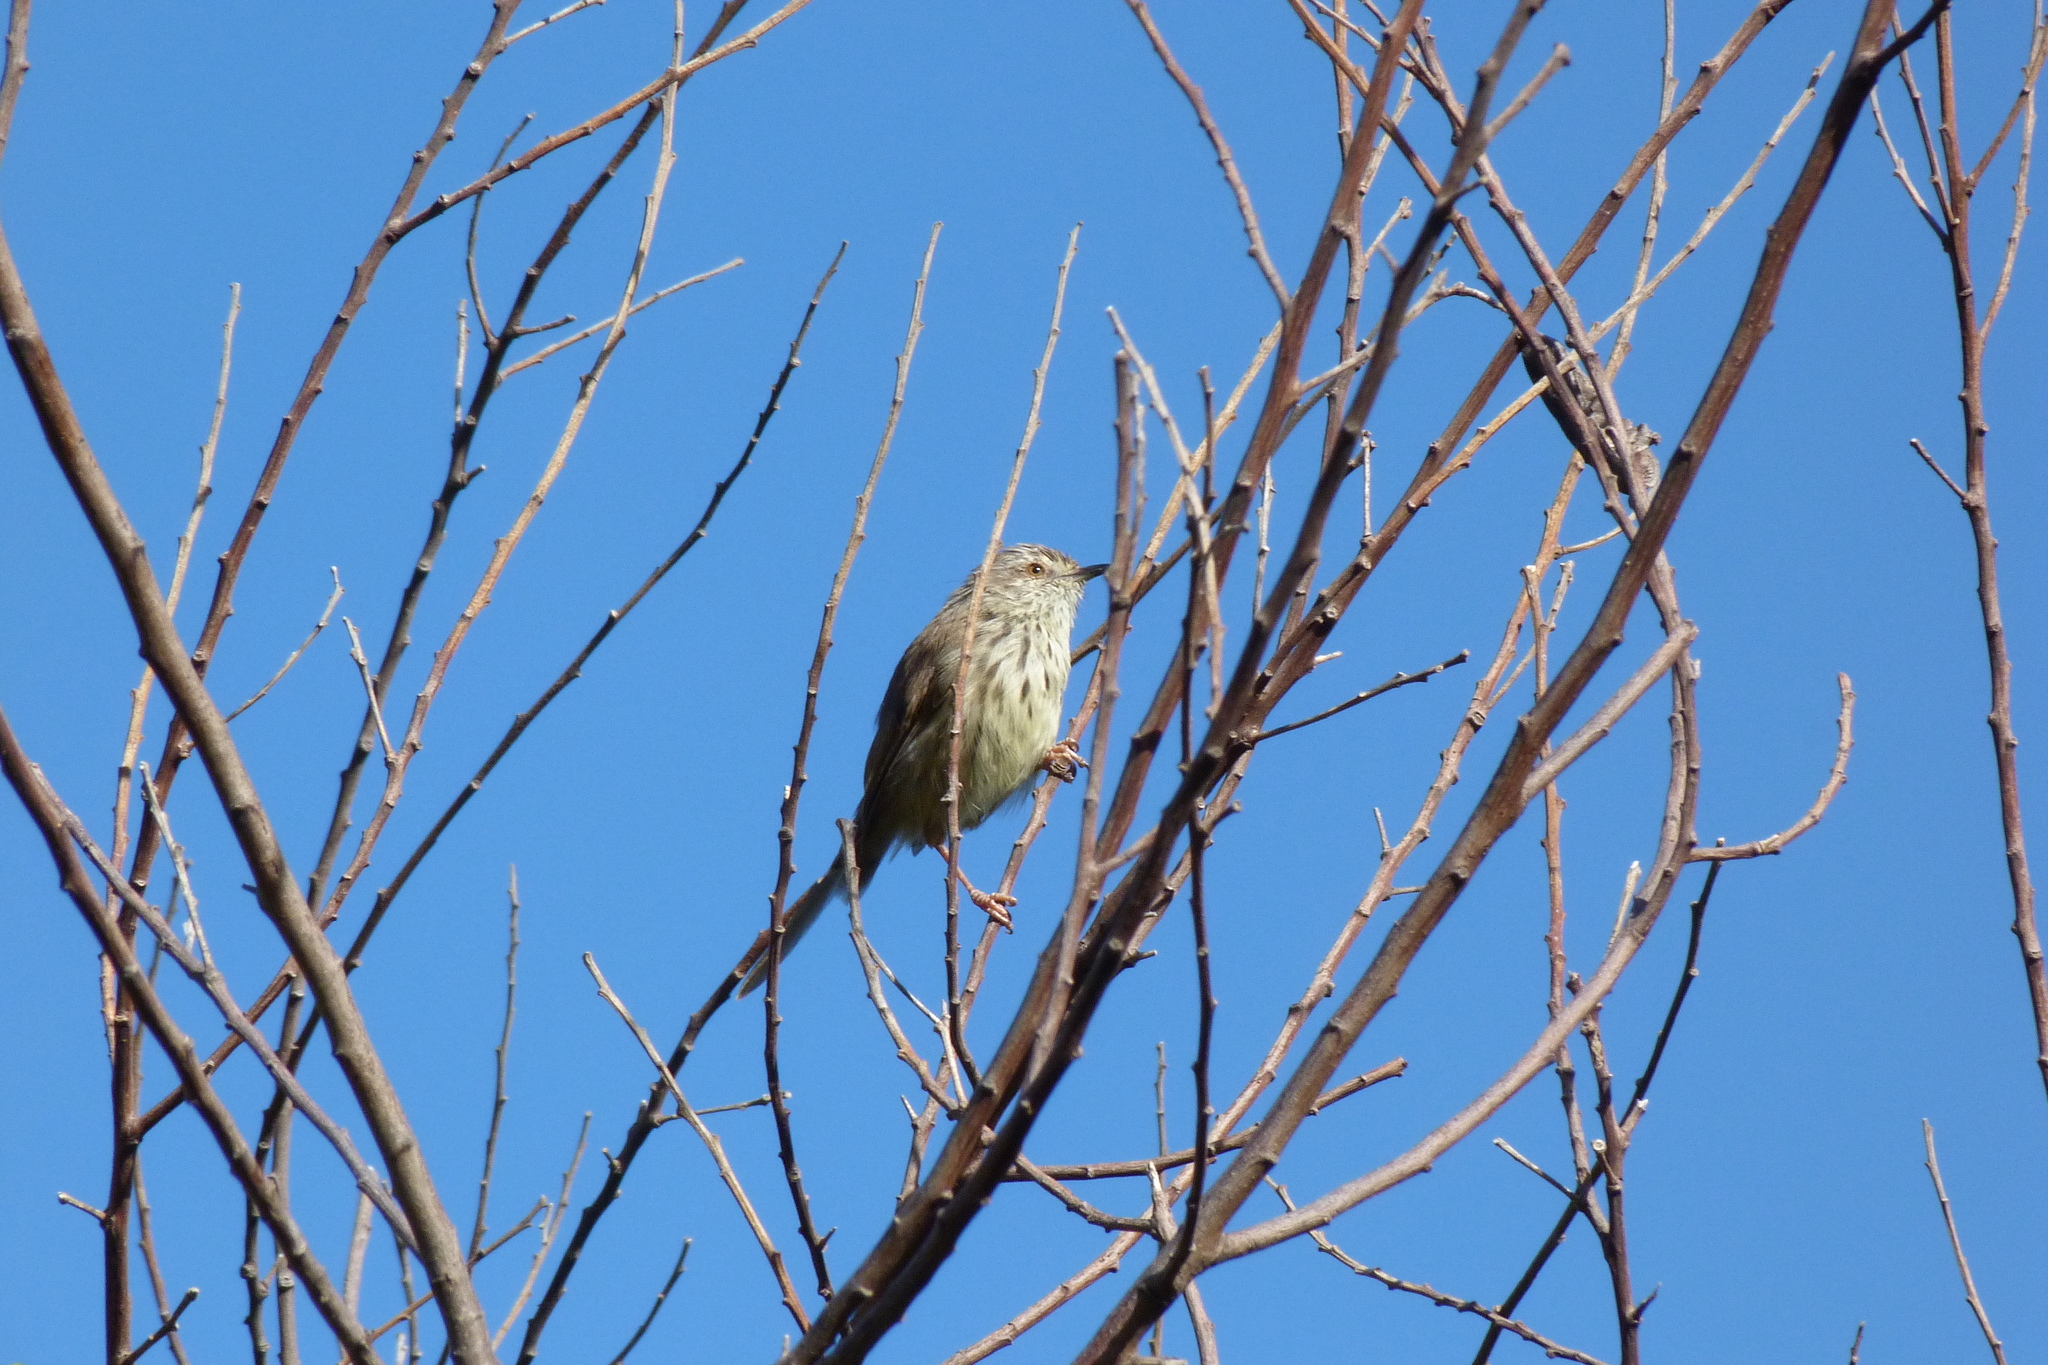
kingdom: Animalia
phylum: Chordata
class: Aves
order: Passeriformes
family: Cisticolidae
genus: Prinia
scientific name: Prinia maculosa
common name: Karoo prinia
